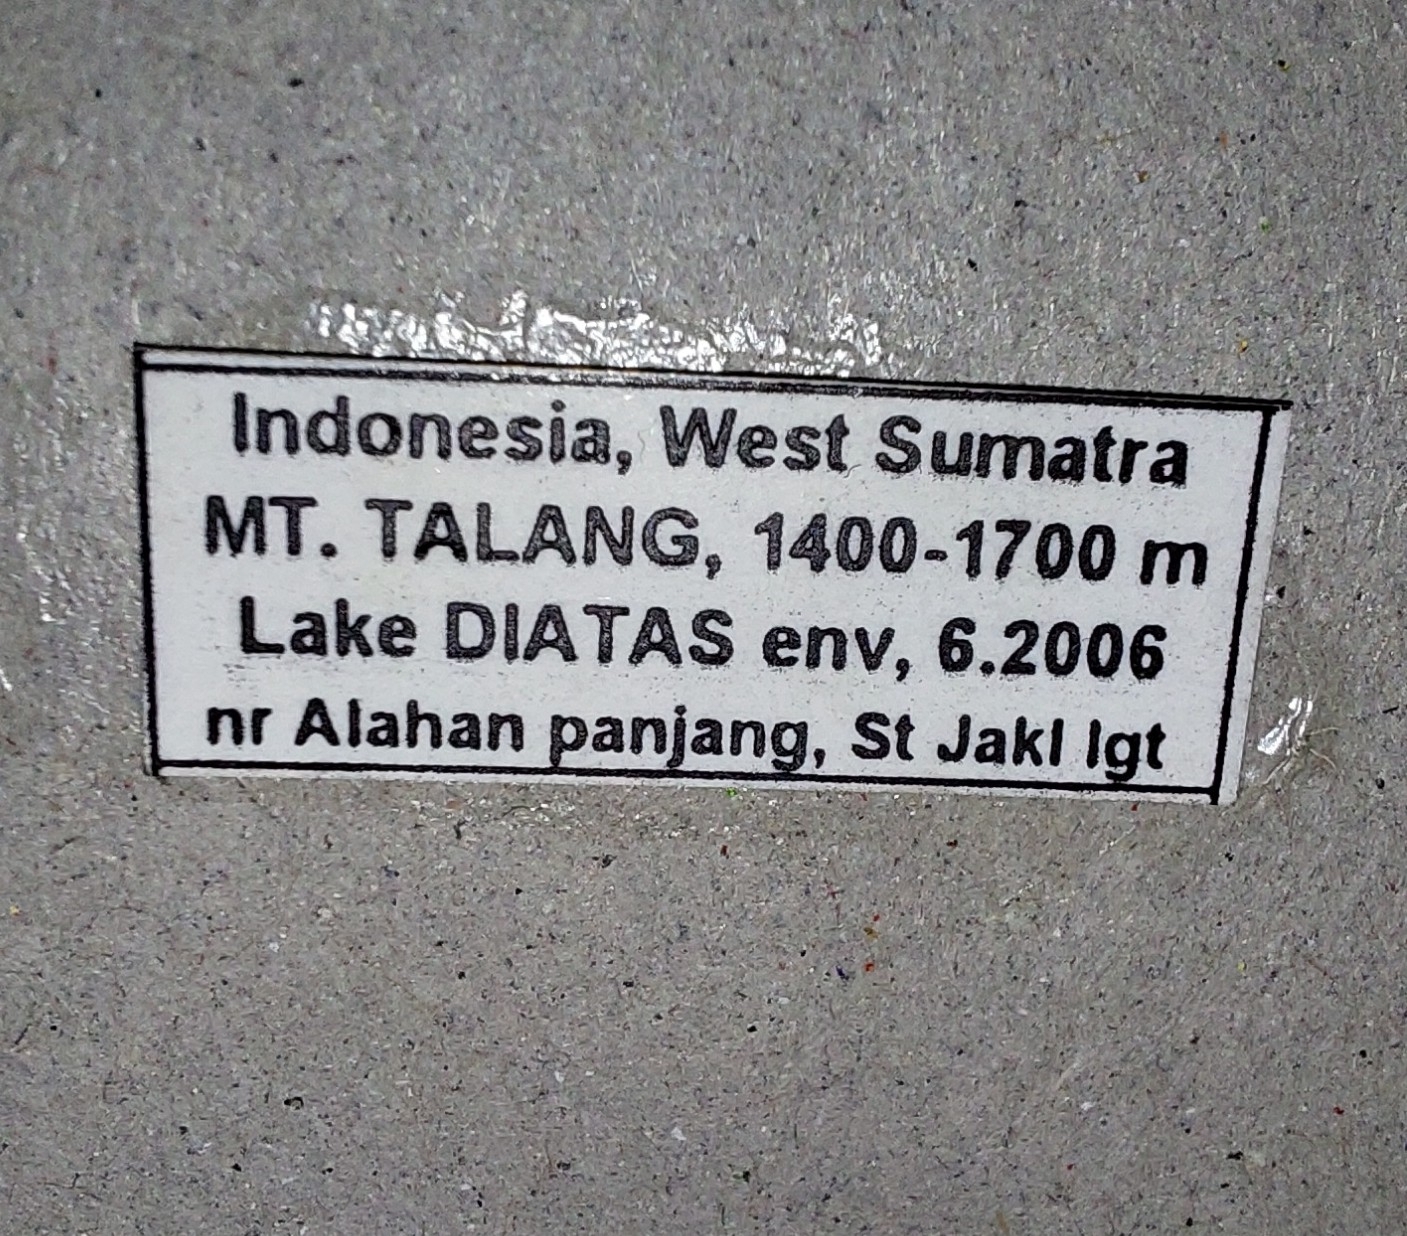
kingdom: Animalia
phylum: Arthropoda
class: Insecta
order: Dermaptera
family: Forficulidae
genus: Eparchus
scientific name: Eparchus insignis
